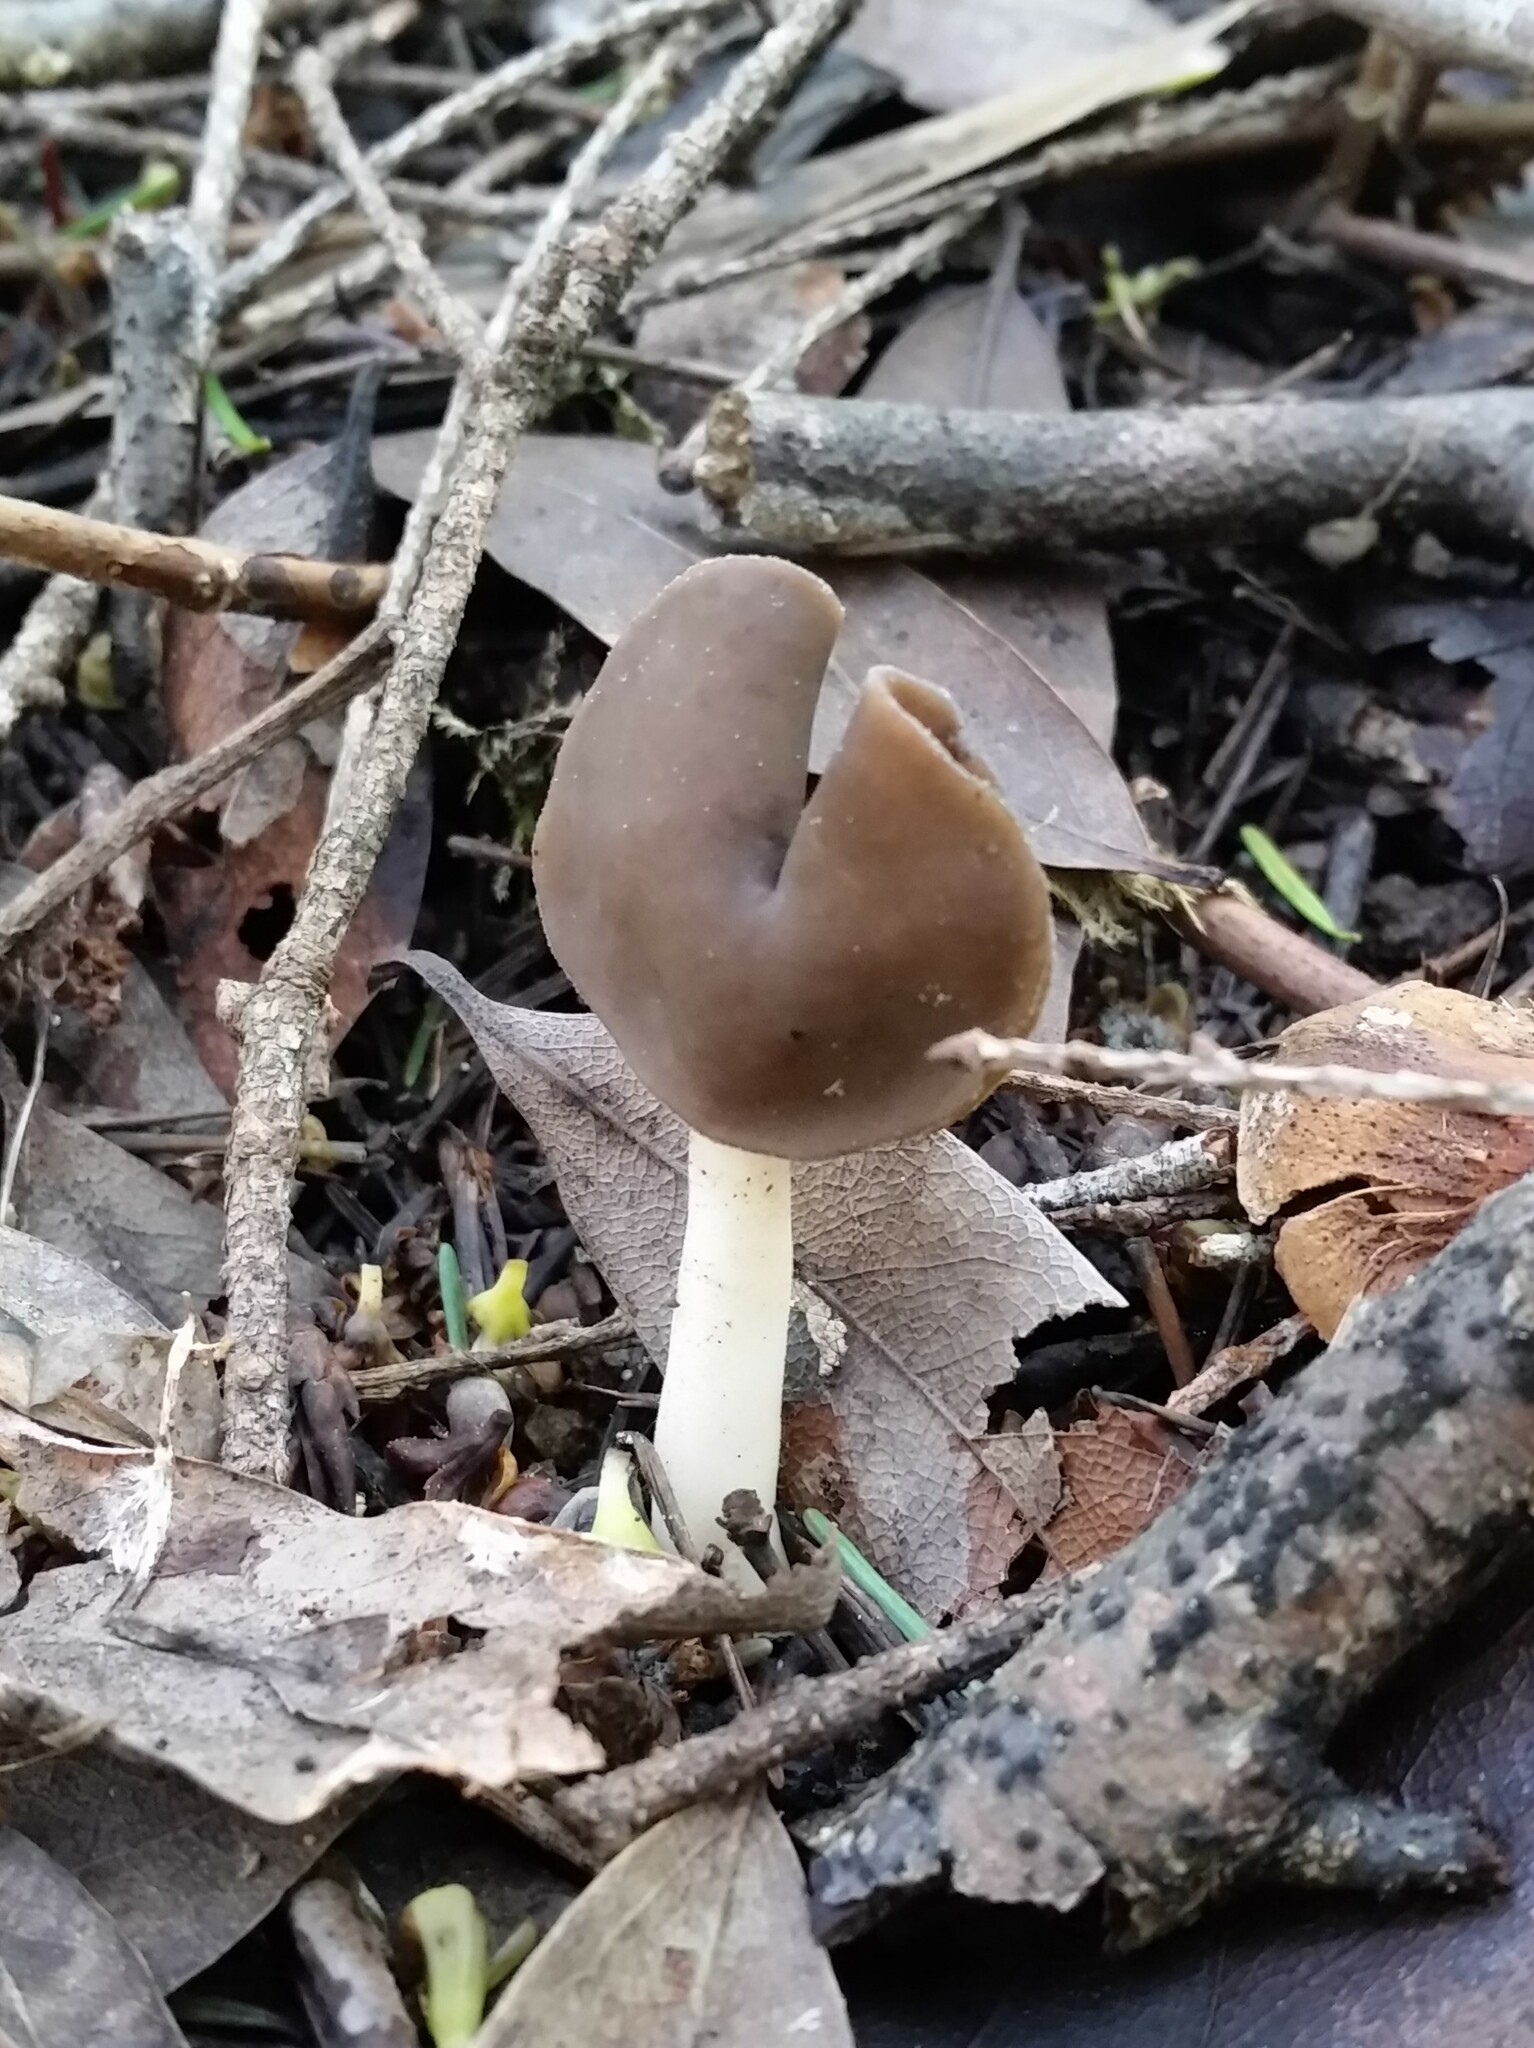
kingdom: Fungi
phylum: Ascomycota
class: Pezizomycetes
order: Pezizales
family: Helvellaceae
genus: Helvella
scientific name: Helvella compressa
